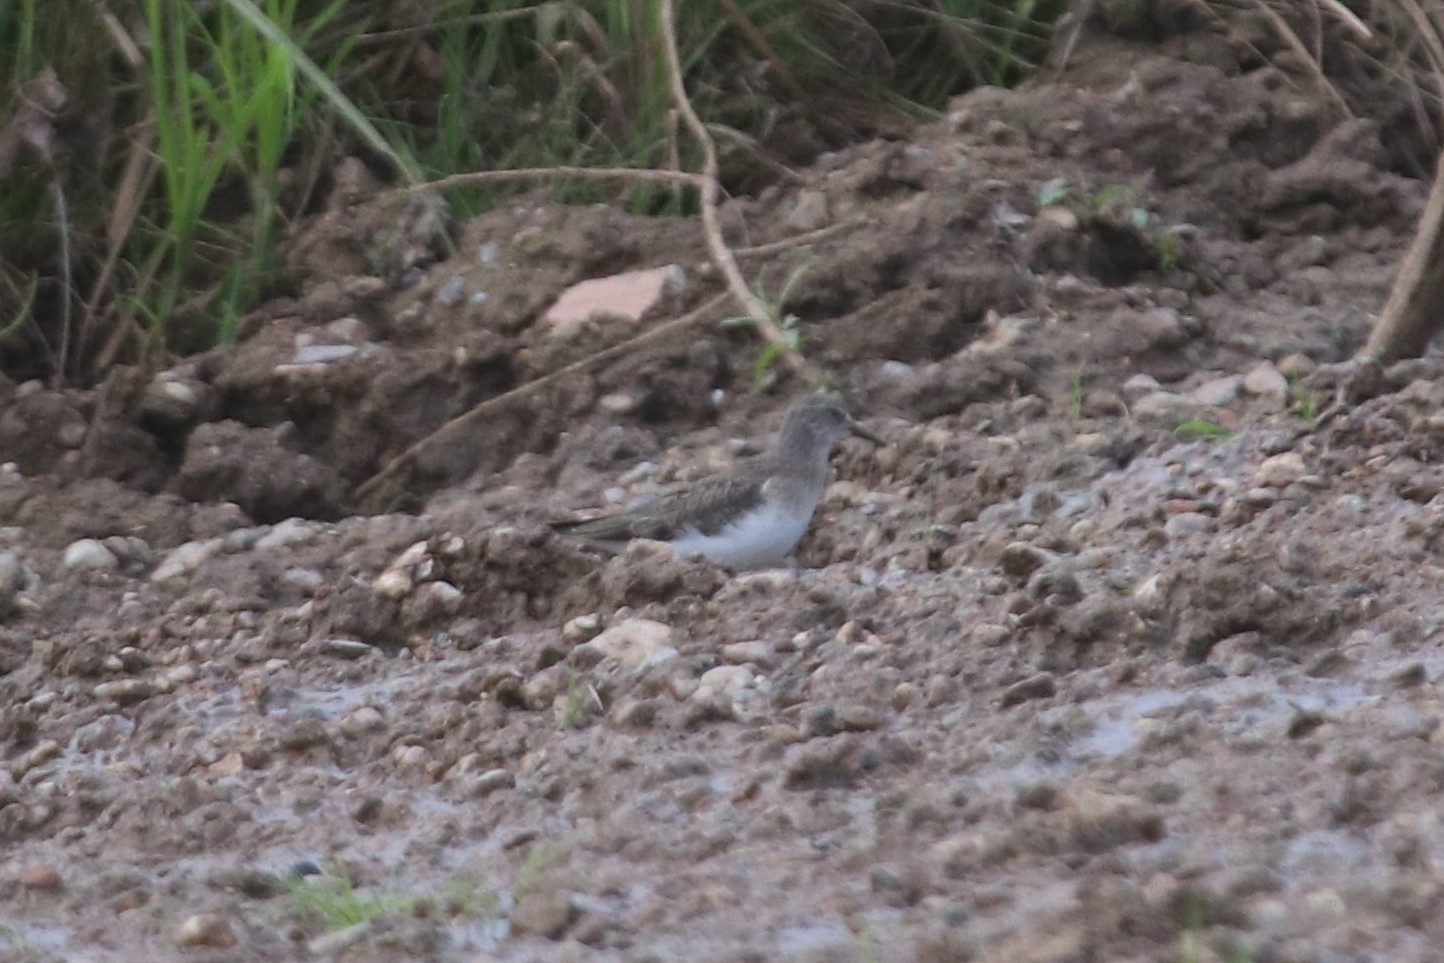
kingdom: Animalia
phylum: Chordata
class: Aves
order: Charadriiformes
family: Scolopacidae
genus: Calidris
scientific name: Calidris temminckii
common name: Temminck's stint
